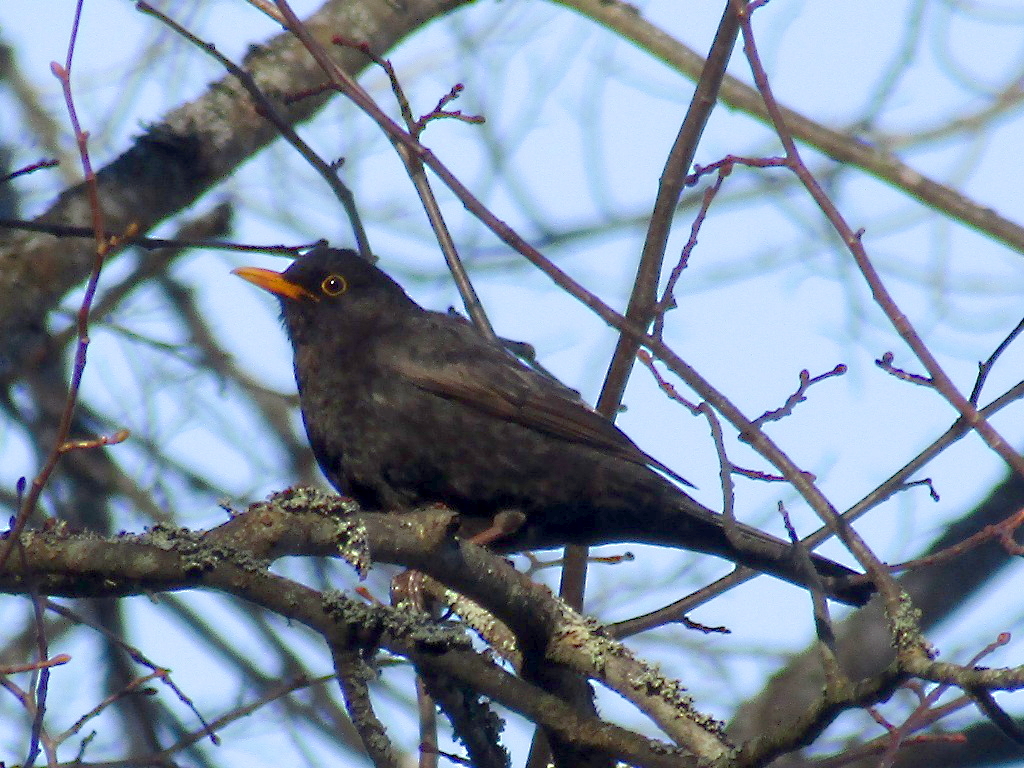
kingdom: Animalia
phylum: Chordata
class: Aves
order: Passeriformes
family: Turdidae
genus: Turdus
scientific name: Turdus merula
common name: Common blackbird
